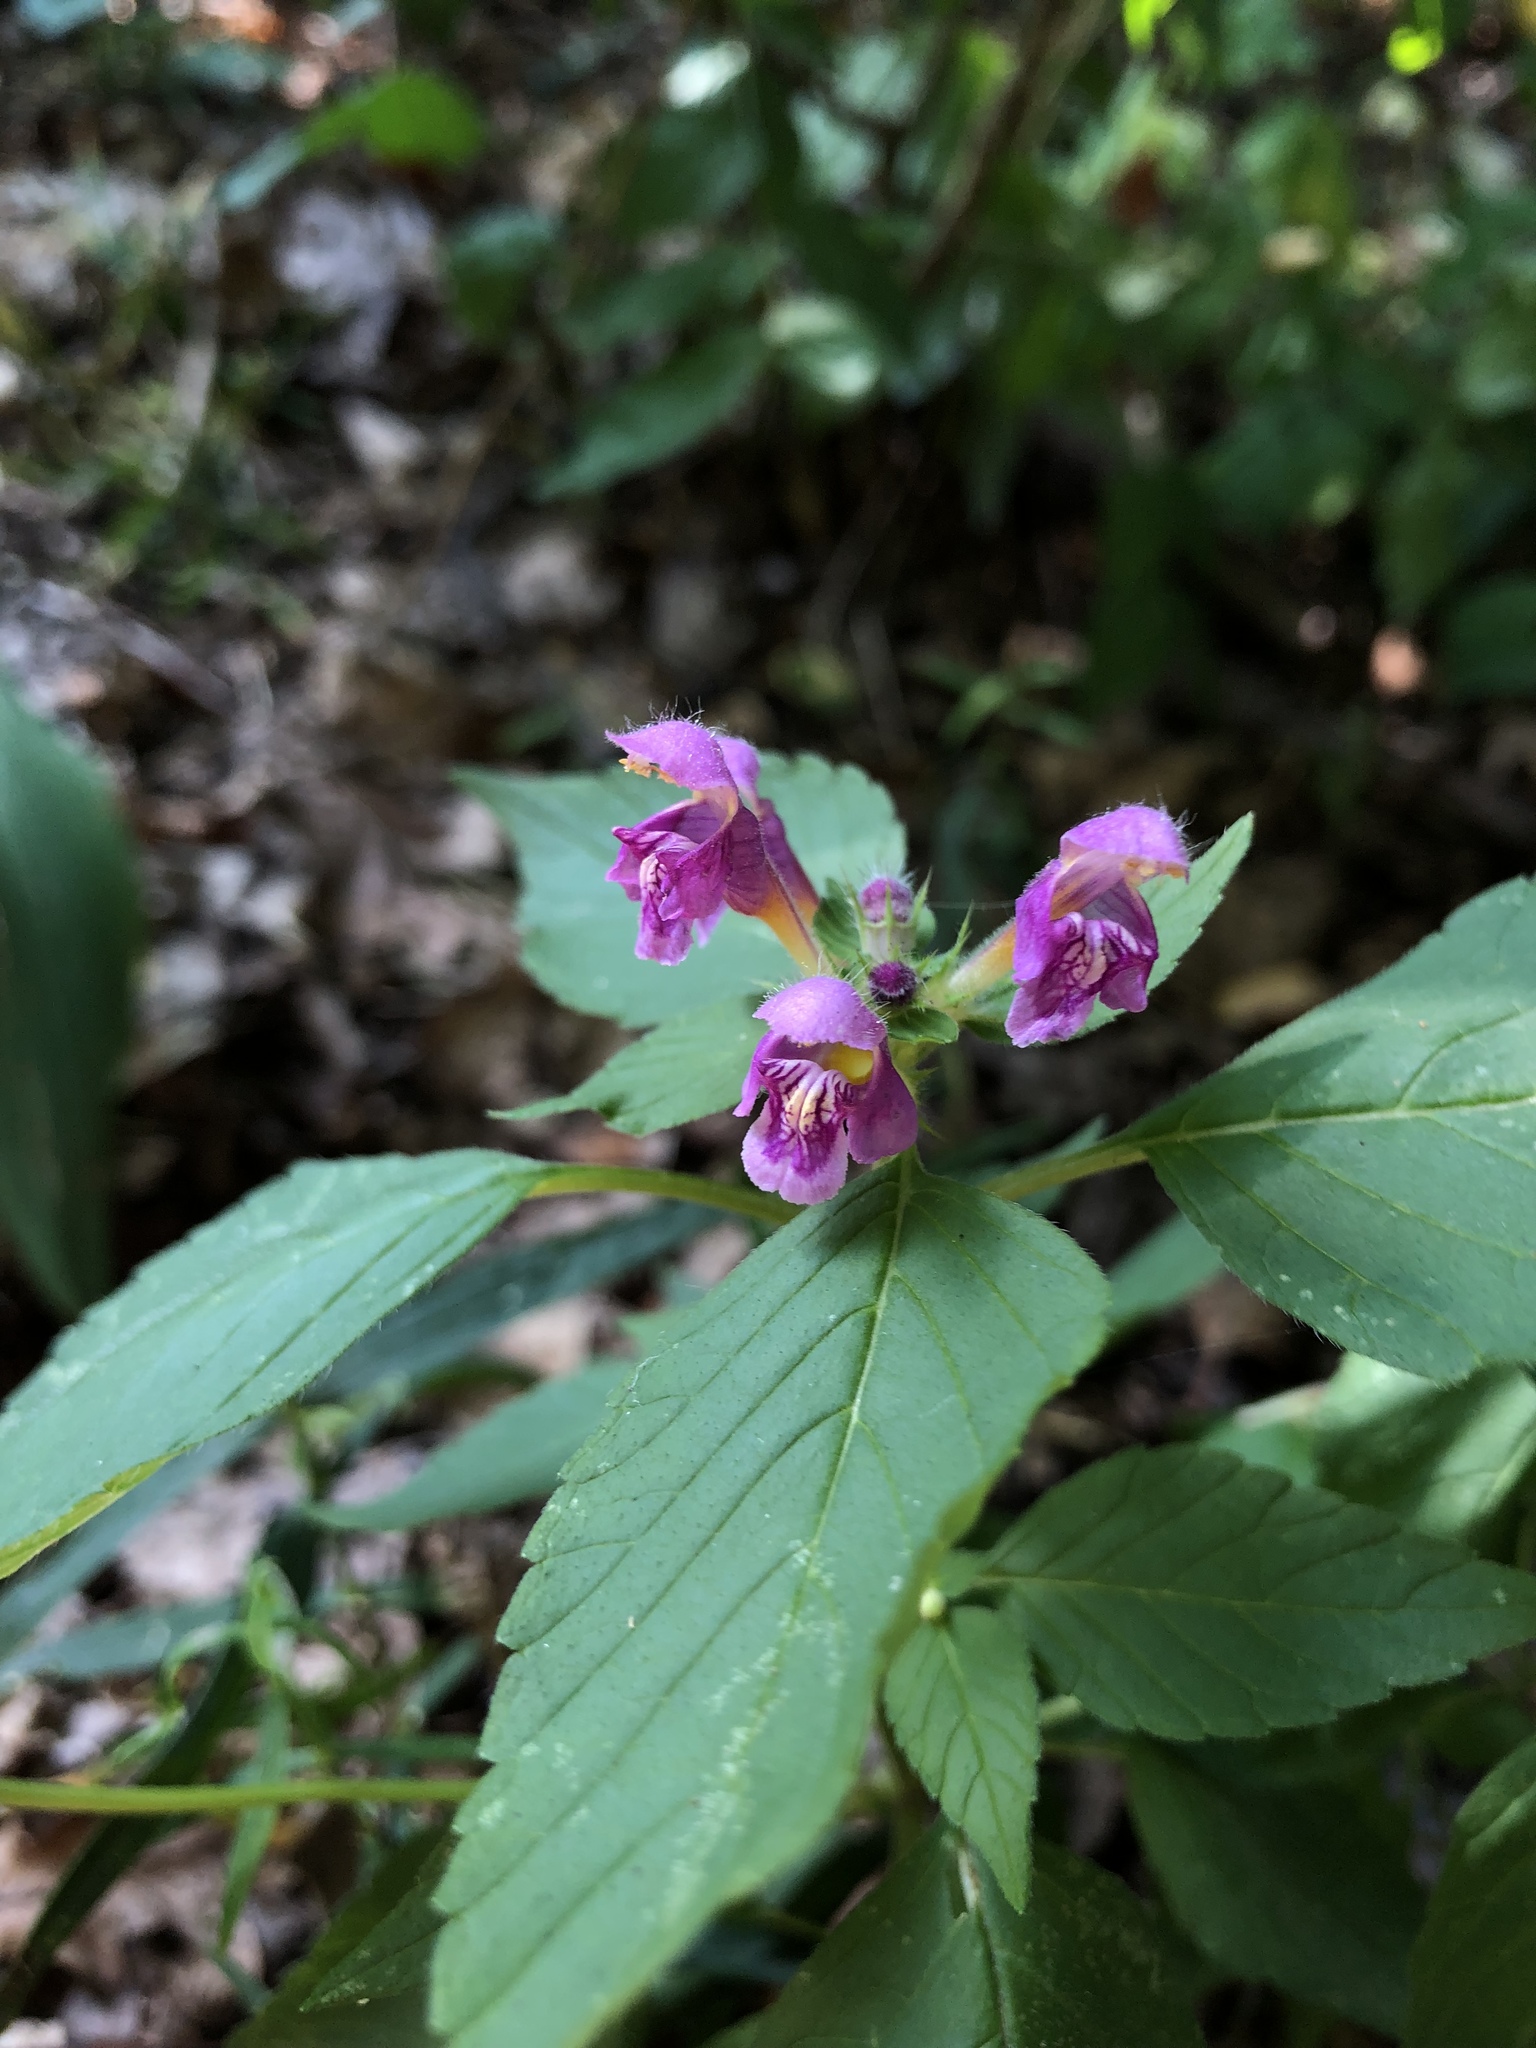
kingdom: Plantae
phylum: Tracheophyta
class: Magnoliopsida
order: Lamiales
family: Lamiaceae
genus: Galeopsis
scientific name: Galeopsis tetrahit
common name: Common hemp-nettle
